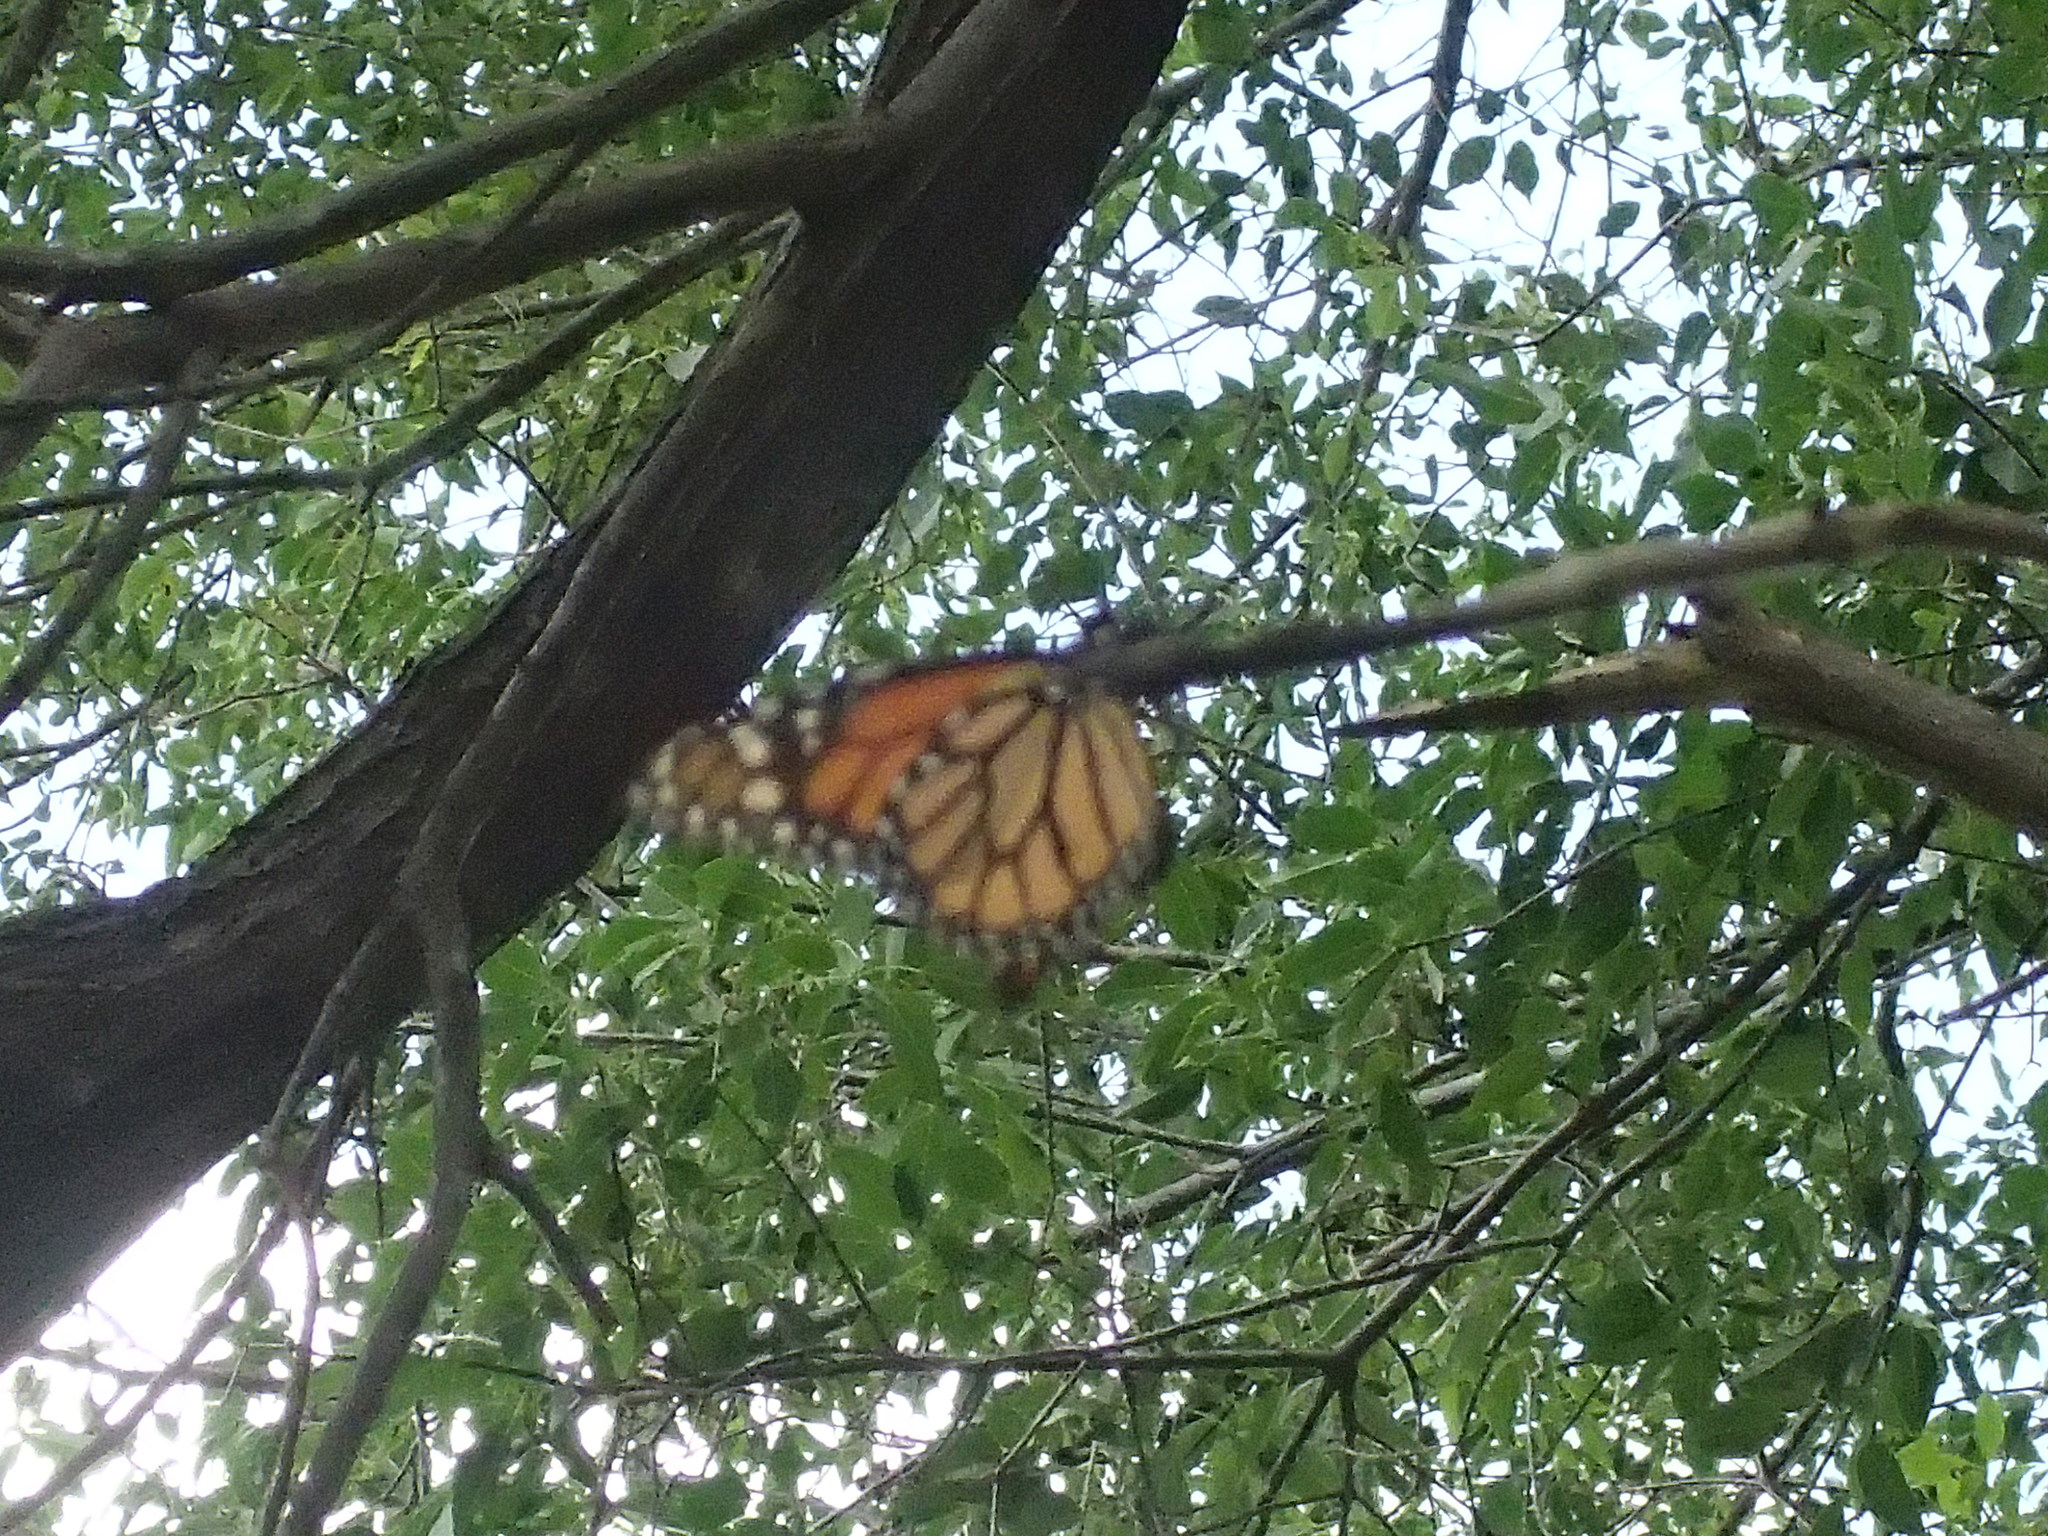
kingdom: Animalia
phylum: Arthropoda
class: Insecta
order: Lepidoptera
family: Nymphalidae
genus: Danaus
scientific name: Danaus plexippus
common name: Monarch
